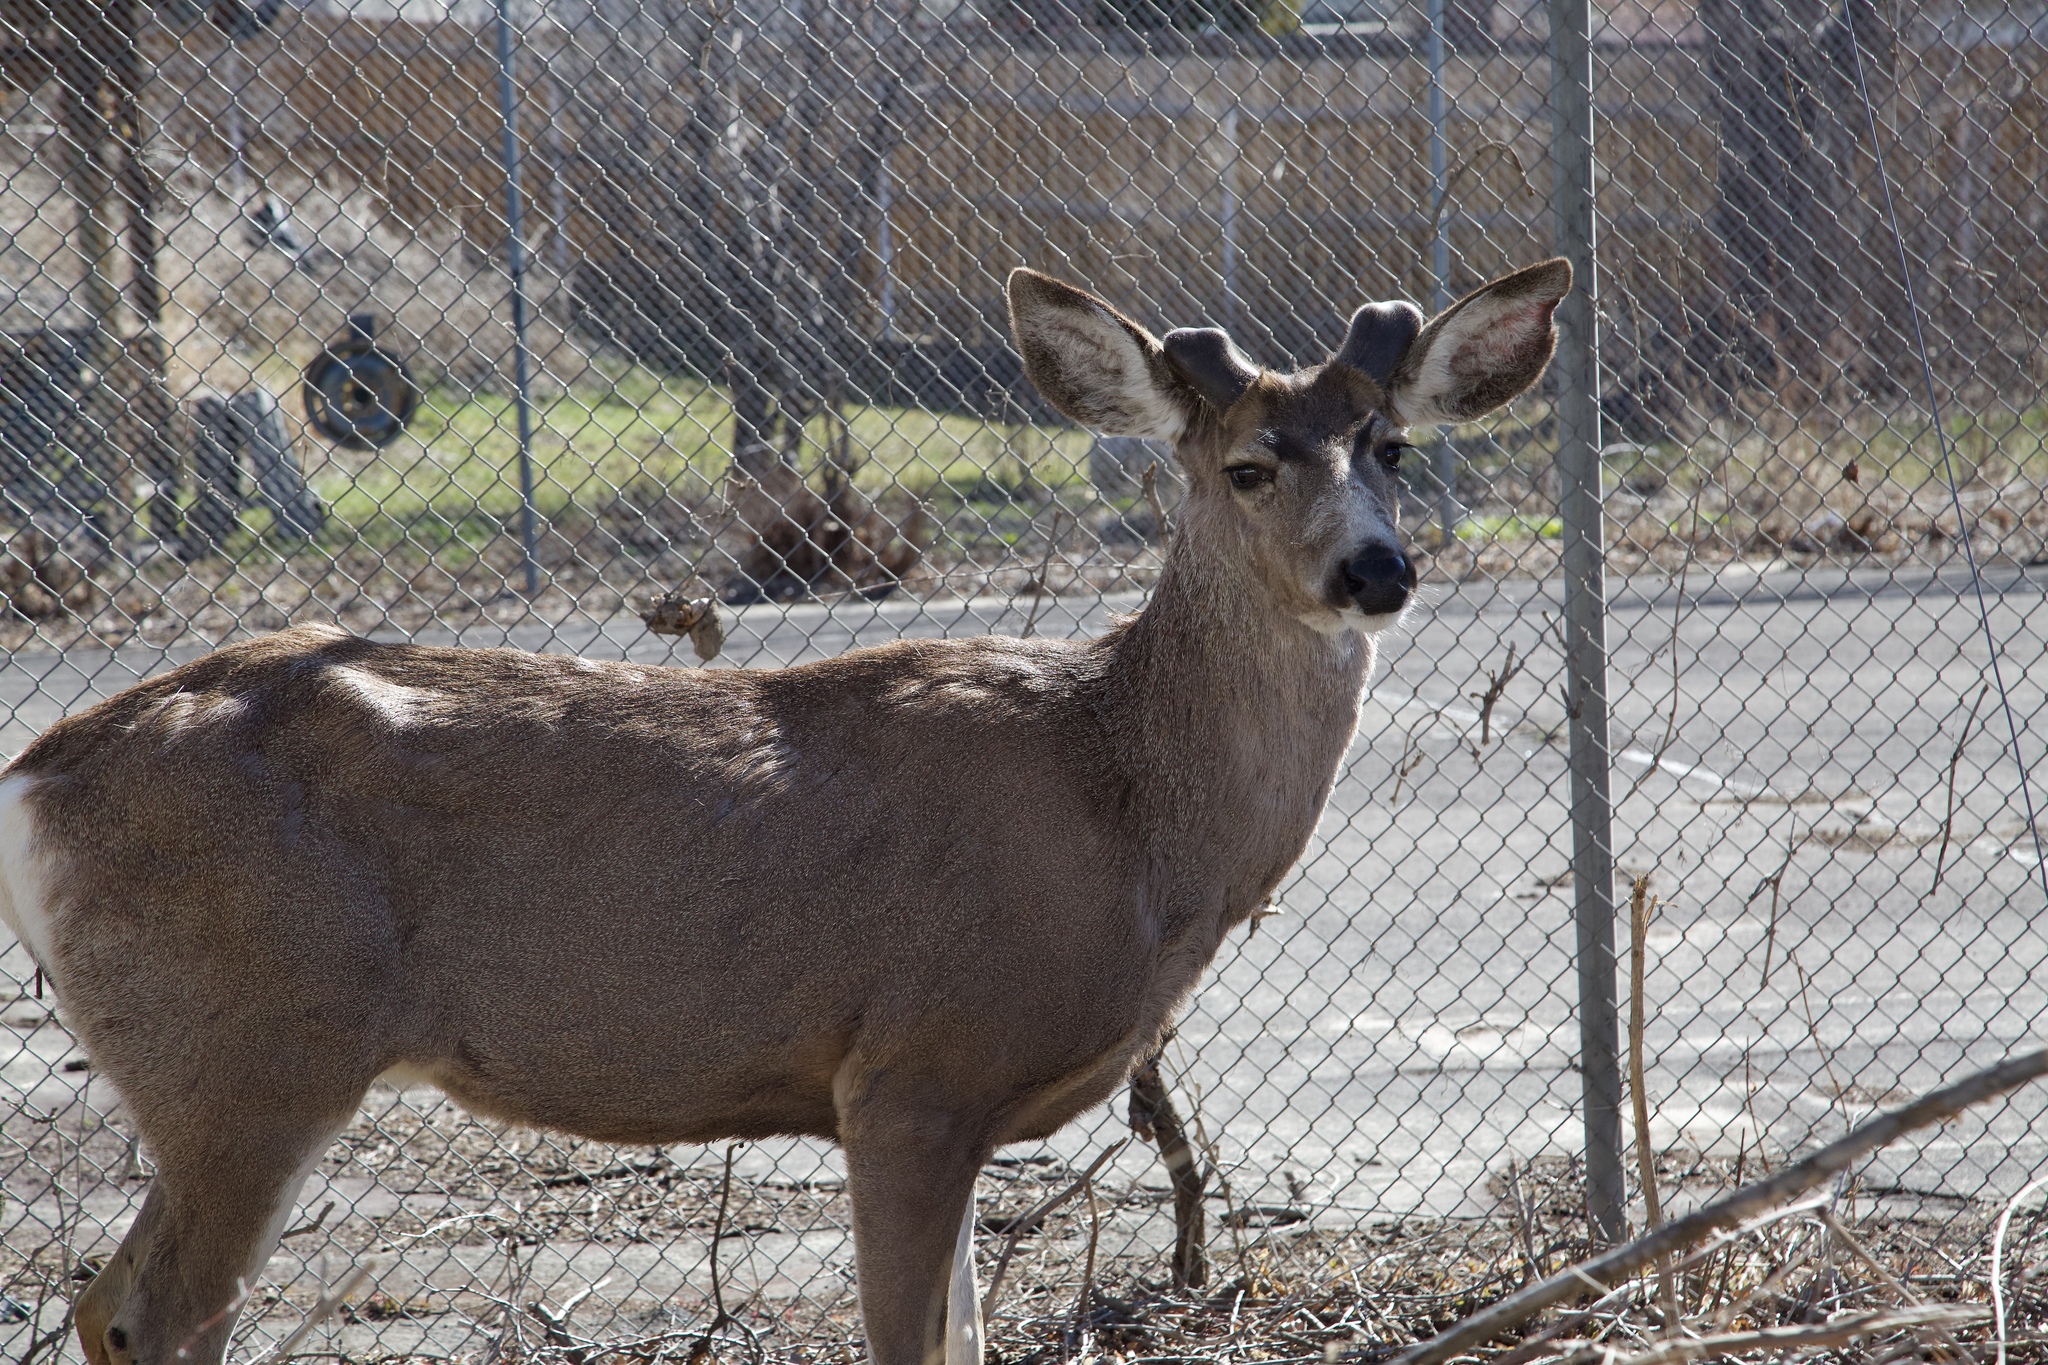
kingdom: Animalia
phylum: Chordata
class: Mammalia
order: Artiodactyla
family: Cervidae
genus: Odocoileus
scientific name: Odocoileus hemionus
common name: Mule deer
